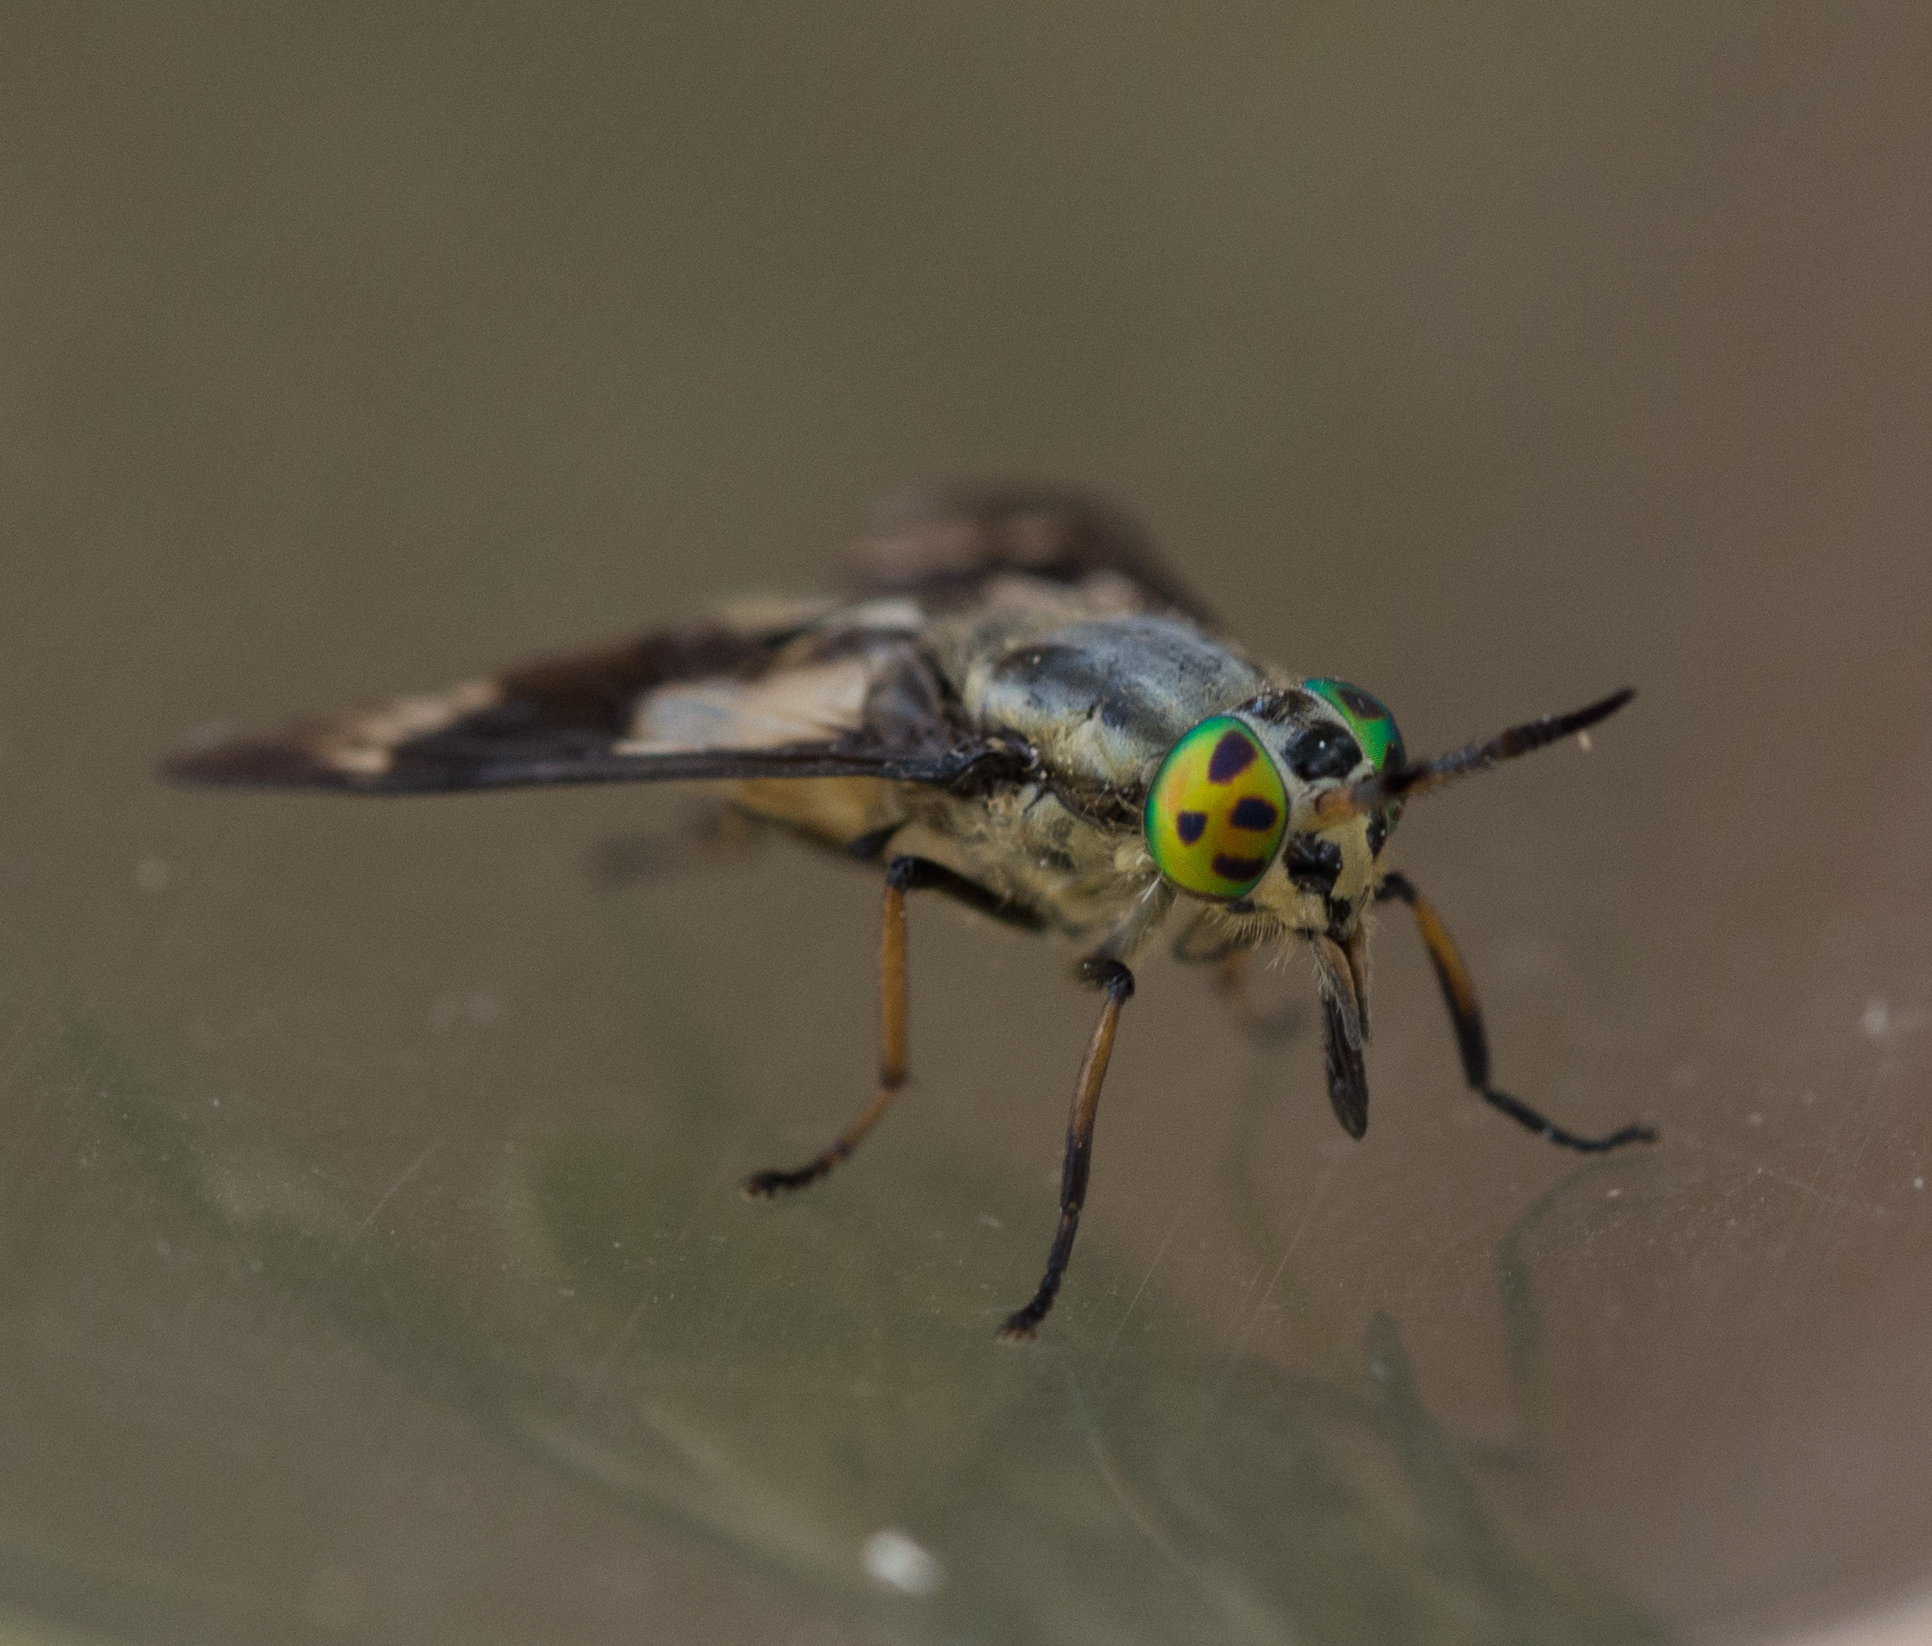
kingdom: Animalia
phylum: Arthropoda
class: Insecta
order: Diptera
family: Tabanidae
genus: Chrysops
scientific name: Chrysops relictus
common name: Twin-lobed deerfly
